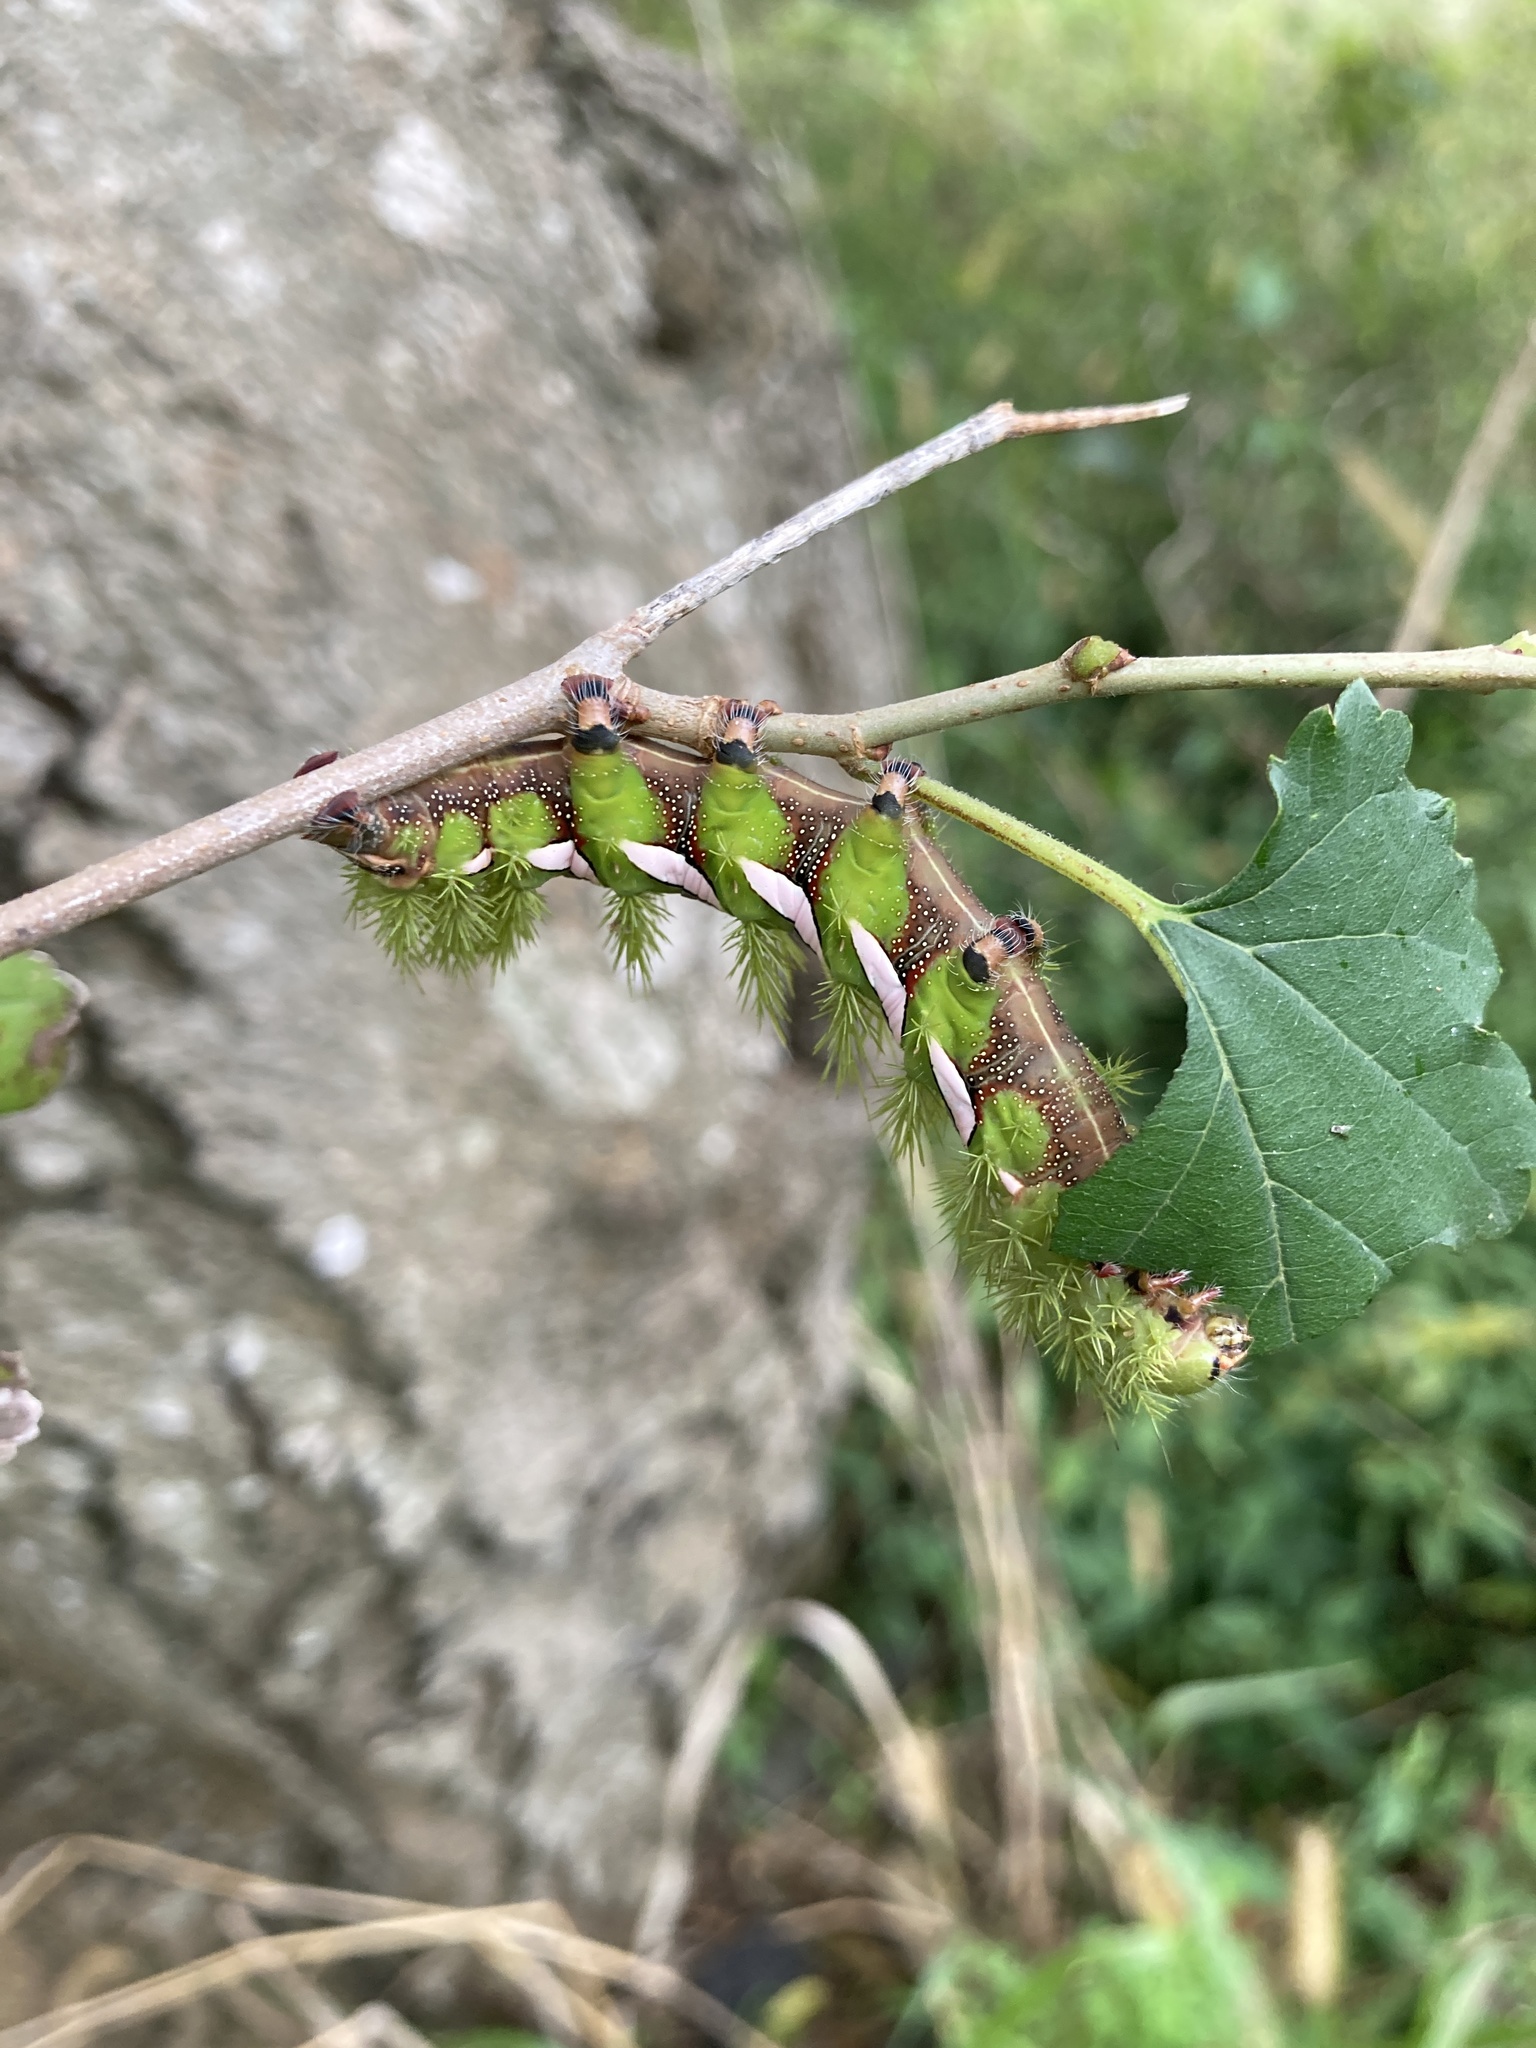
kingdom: Animalia
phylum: Arthropoda
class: Insecta
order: Lepidoptera
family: Saturniidae
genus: Automeris
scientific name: Automeris naranja
